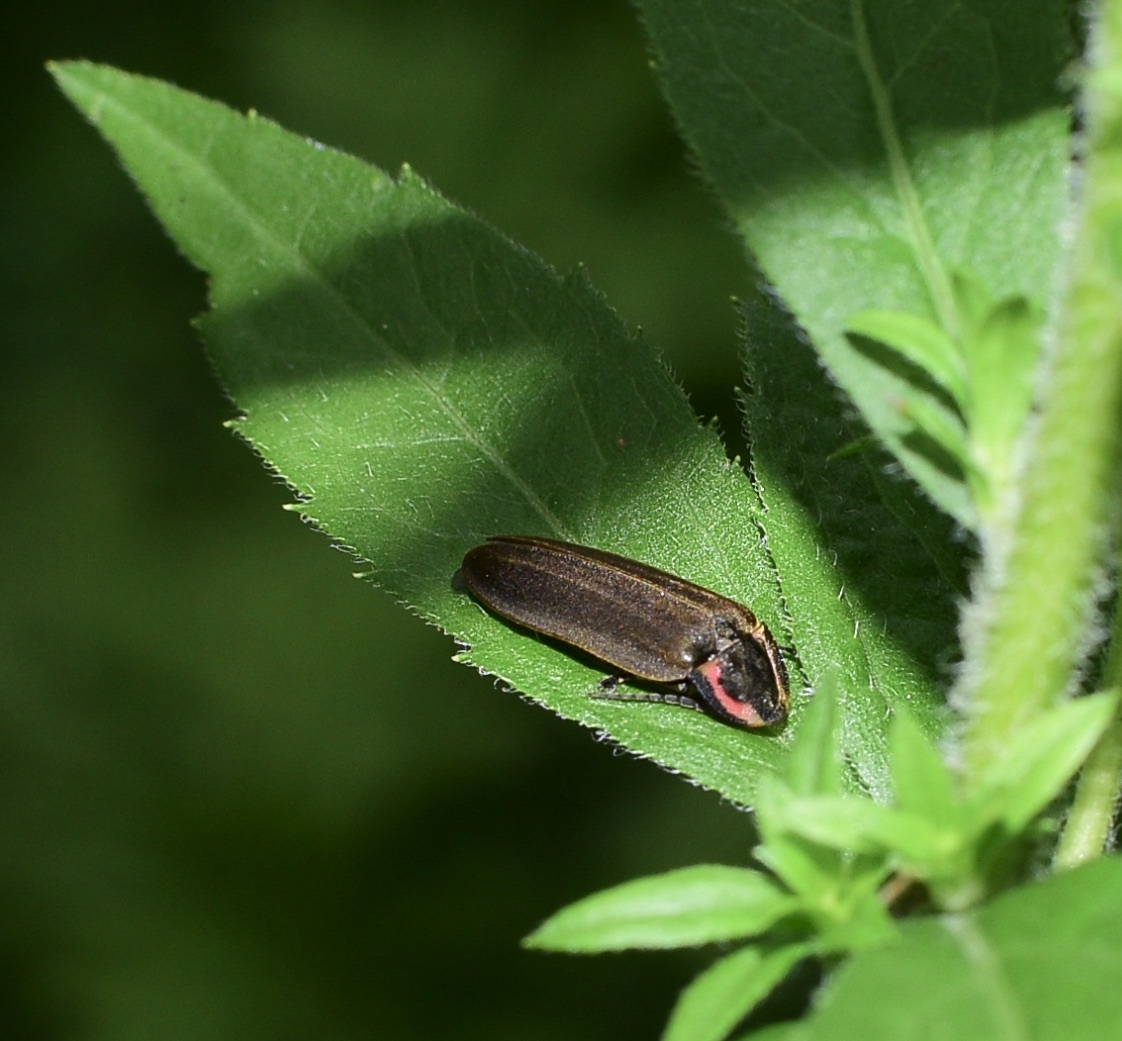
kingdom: Animalia
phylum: Arthropoda
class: Insecta
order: Coleoptera
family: Lampyridae
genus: Photinus
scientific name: Photinus corrusca
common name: Winter firefly
